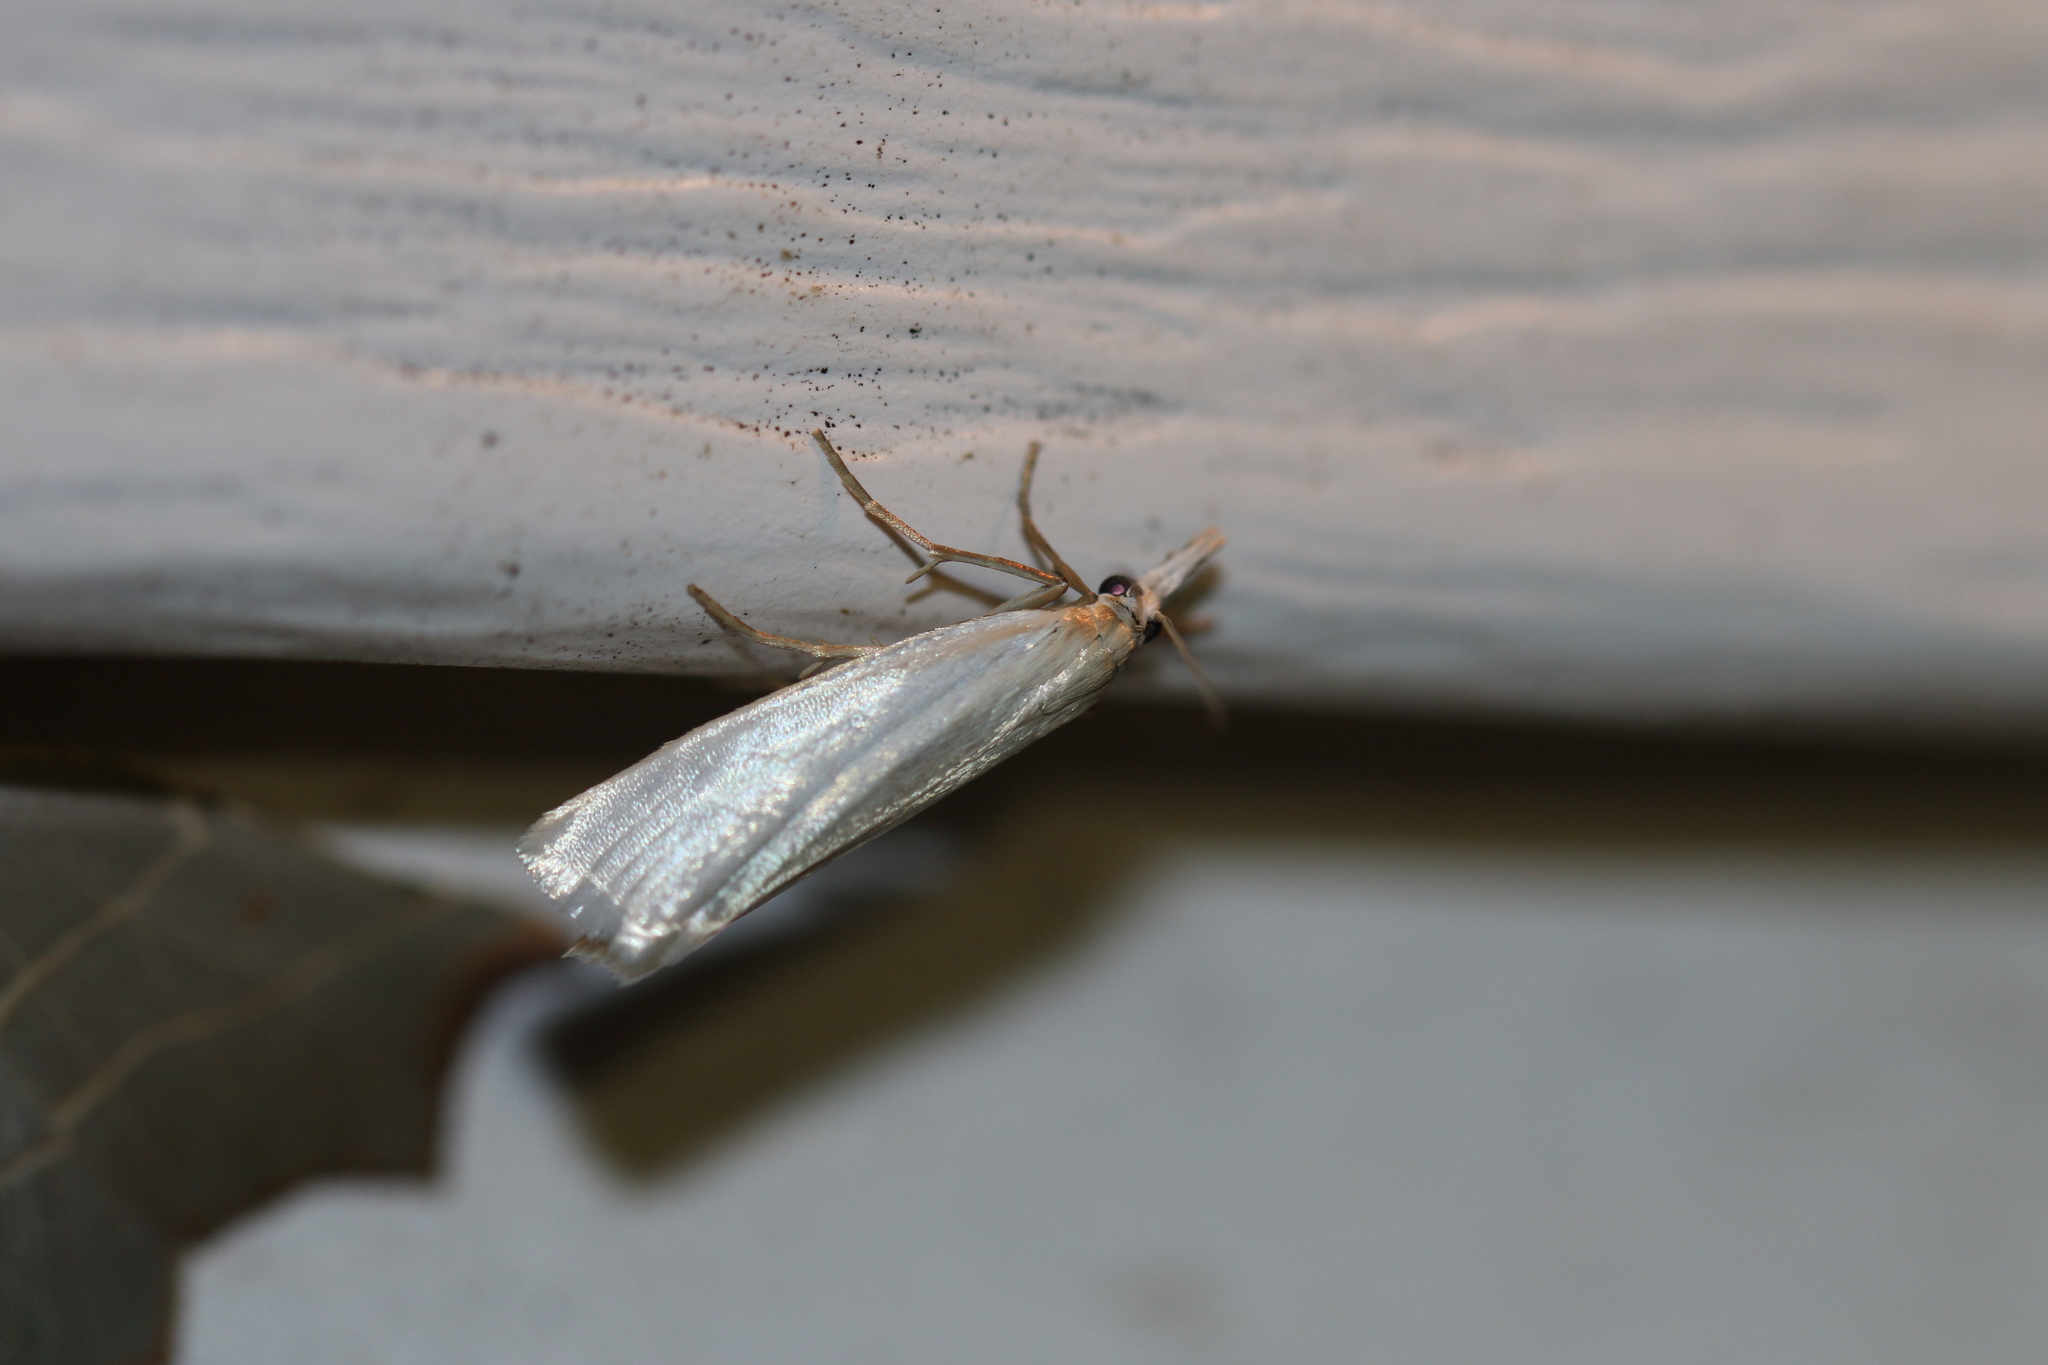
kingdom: Animalia
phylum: Arthropoda
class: Insecta
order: Lepidoptera
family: Crambidae
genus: Crambus
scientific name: Crambus perlellus
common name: Yellow satin veneer
